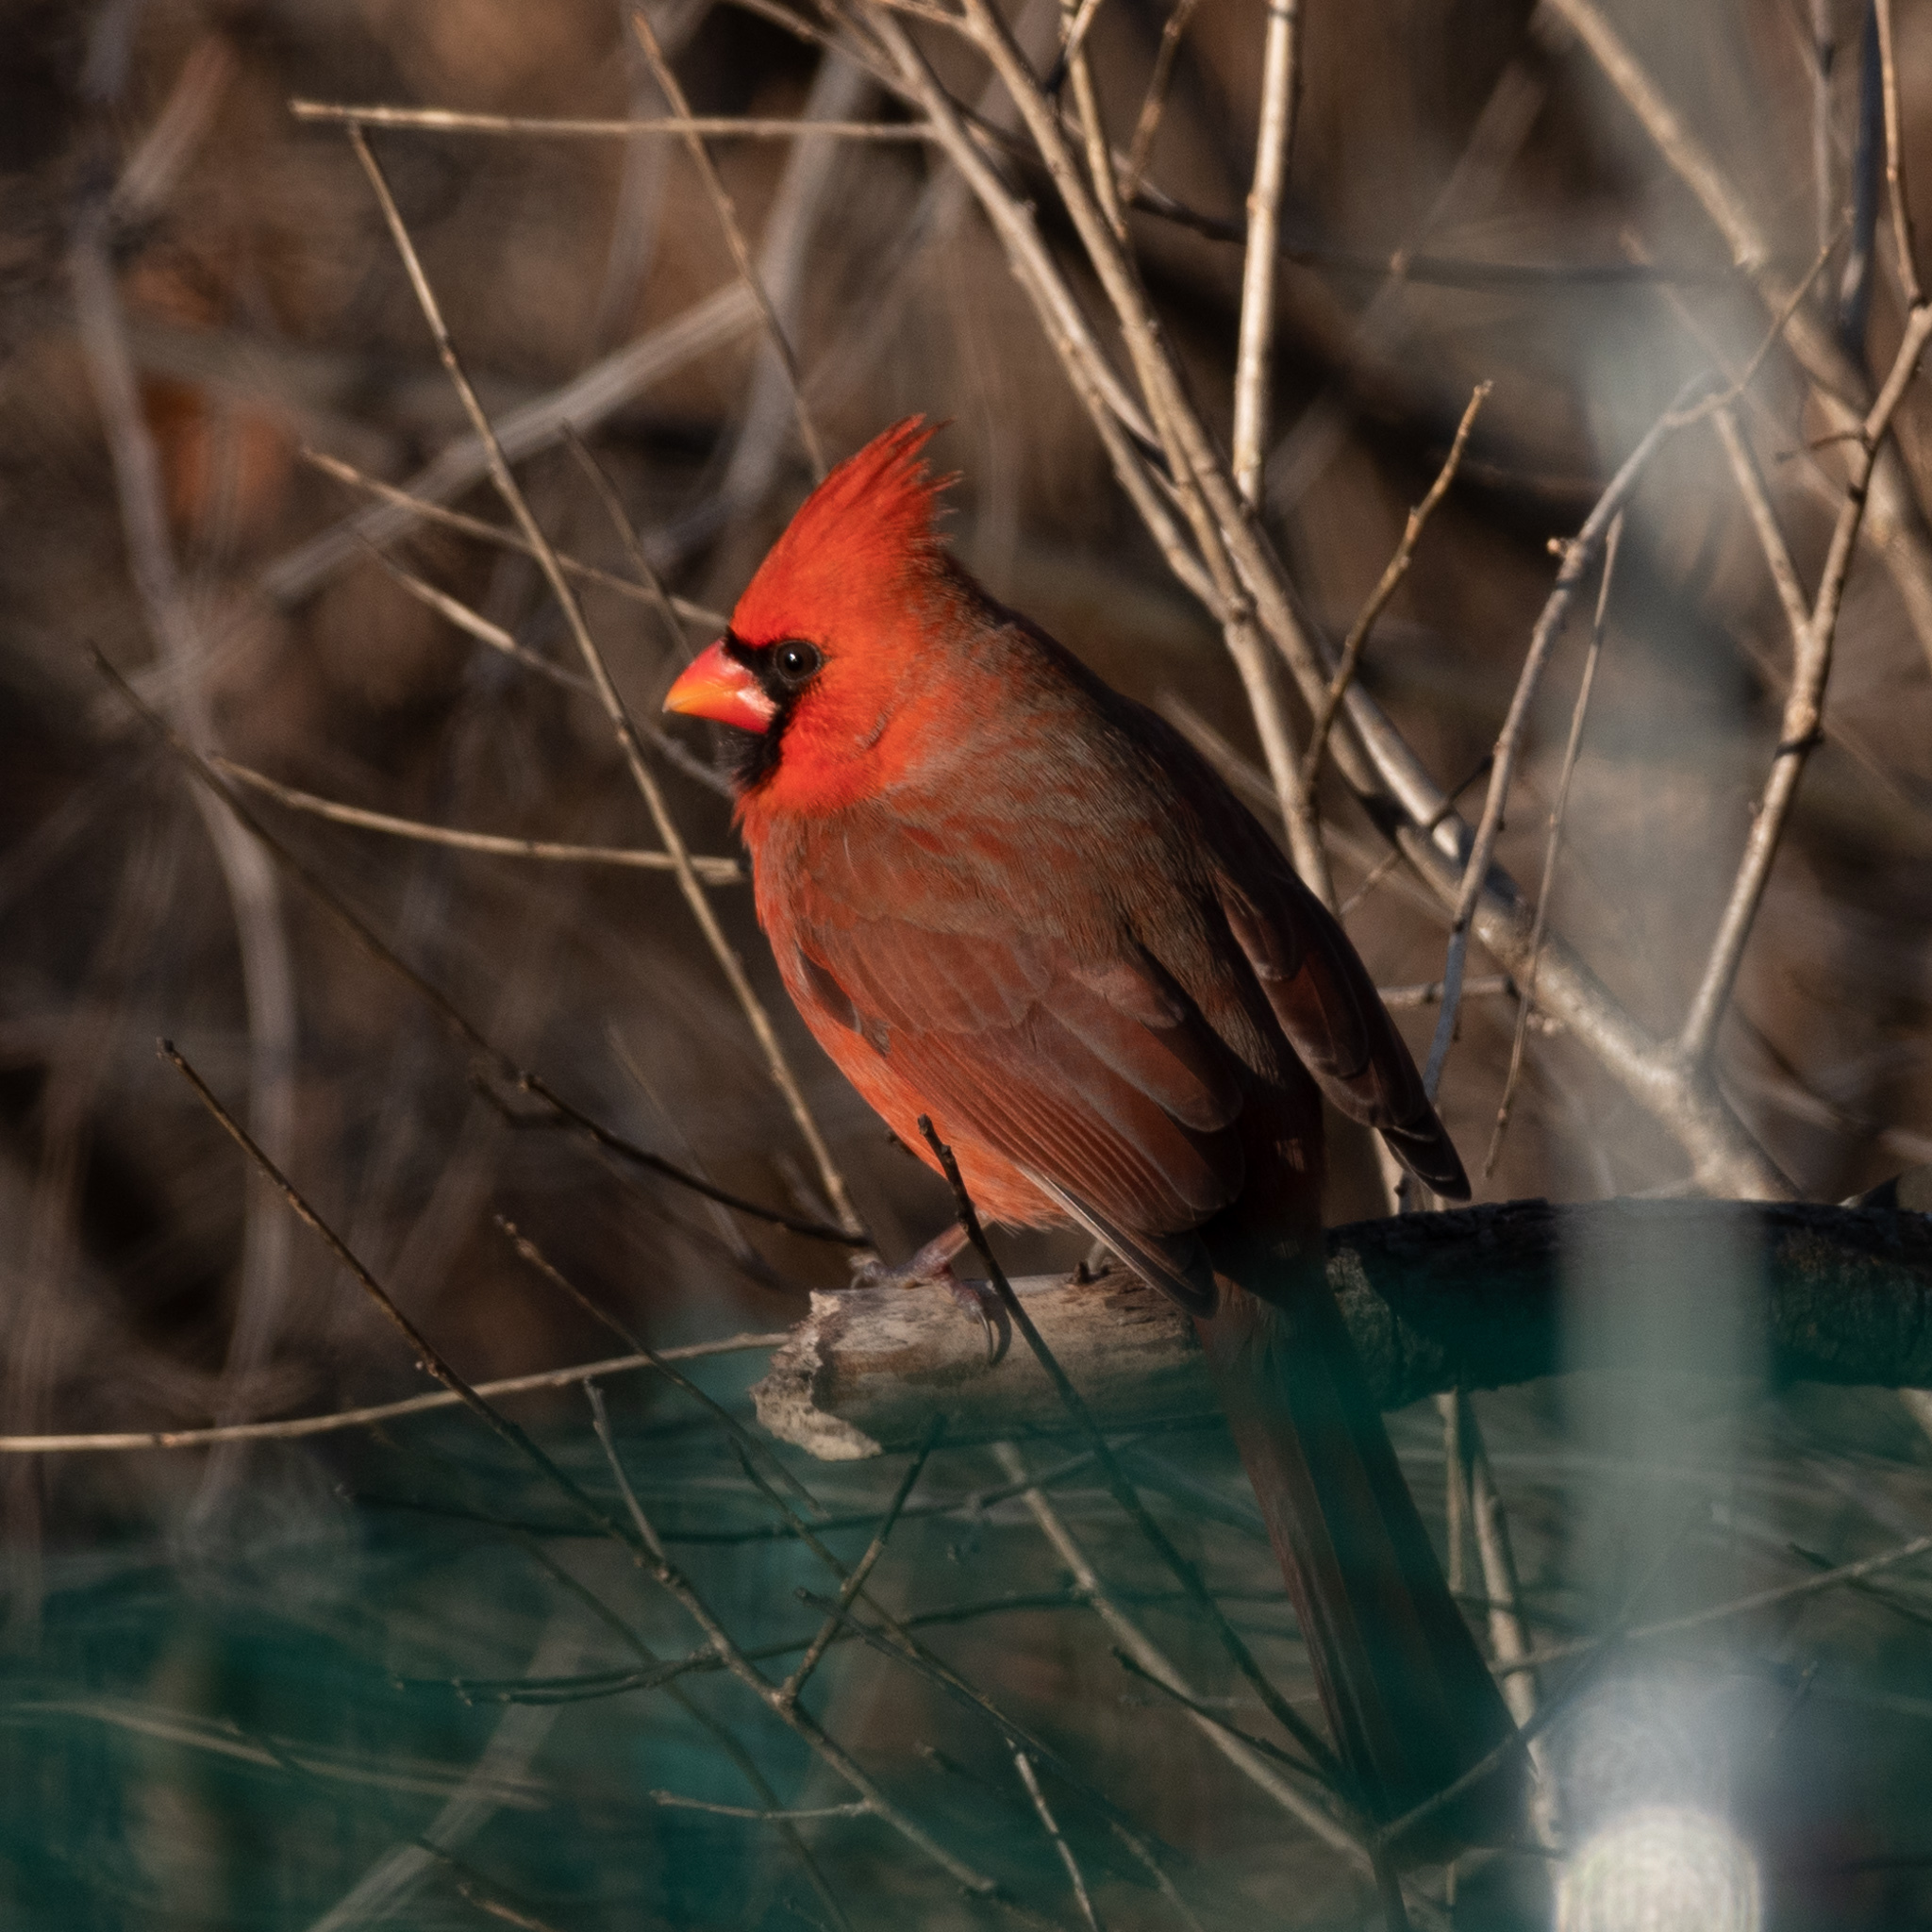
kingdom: Animalia
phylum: Chordata
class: Aves
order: Passeriformes
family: Cardinalidae
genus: Cardinalis
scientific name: Cardinalis cardinalis
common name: Northern cardinal
